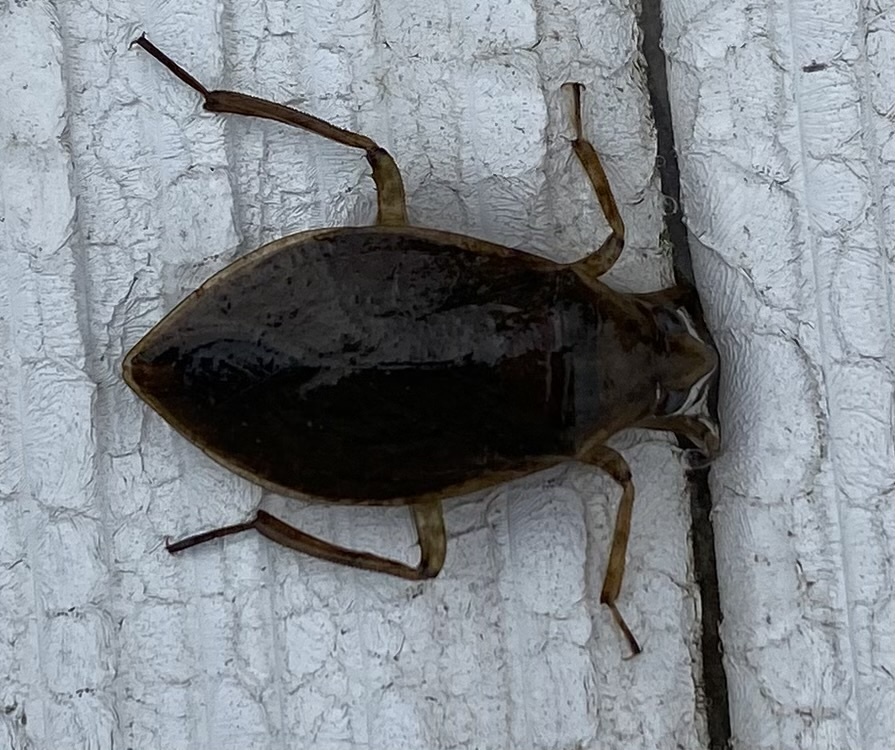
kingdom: Animalia
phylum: Arthropoda
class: Insecta
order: Hemiptera
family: Belostomatidae
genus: Belostoma
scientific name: Belostoma flumineum
